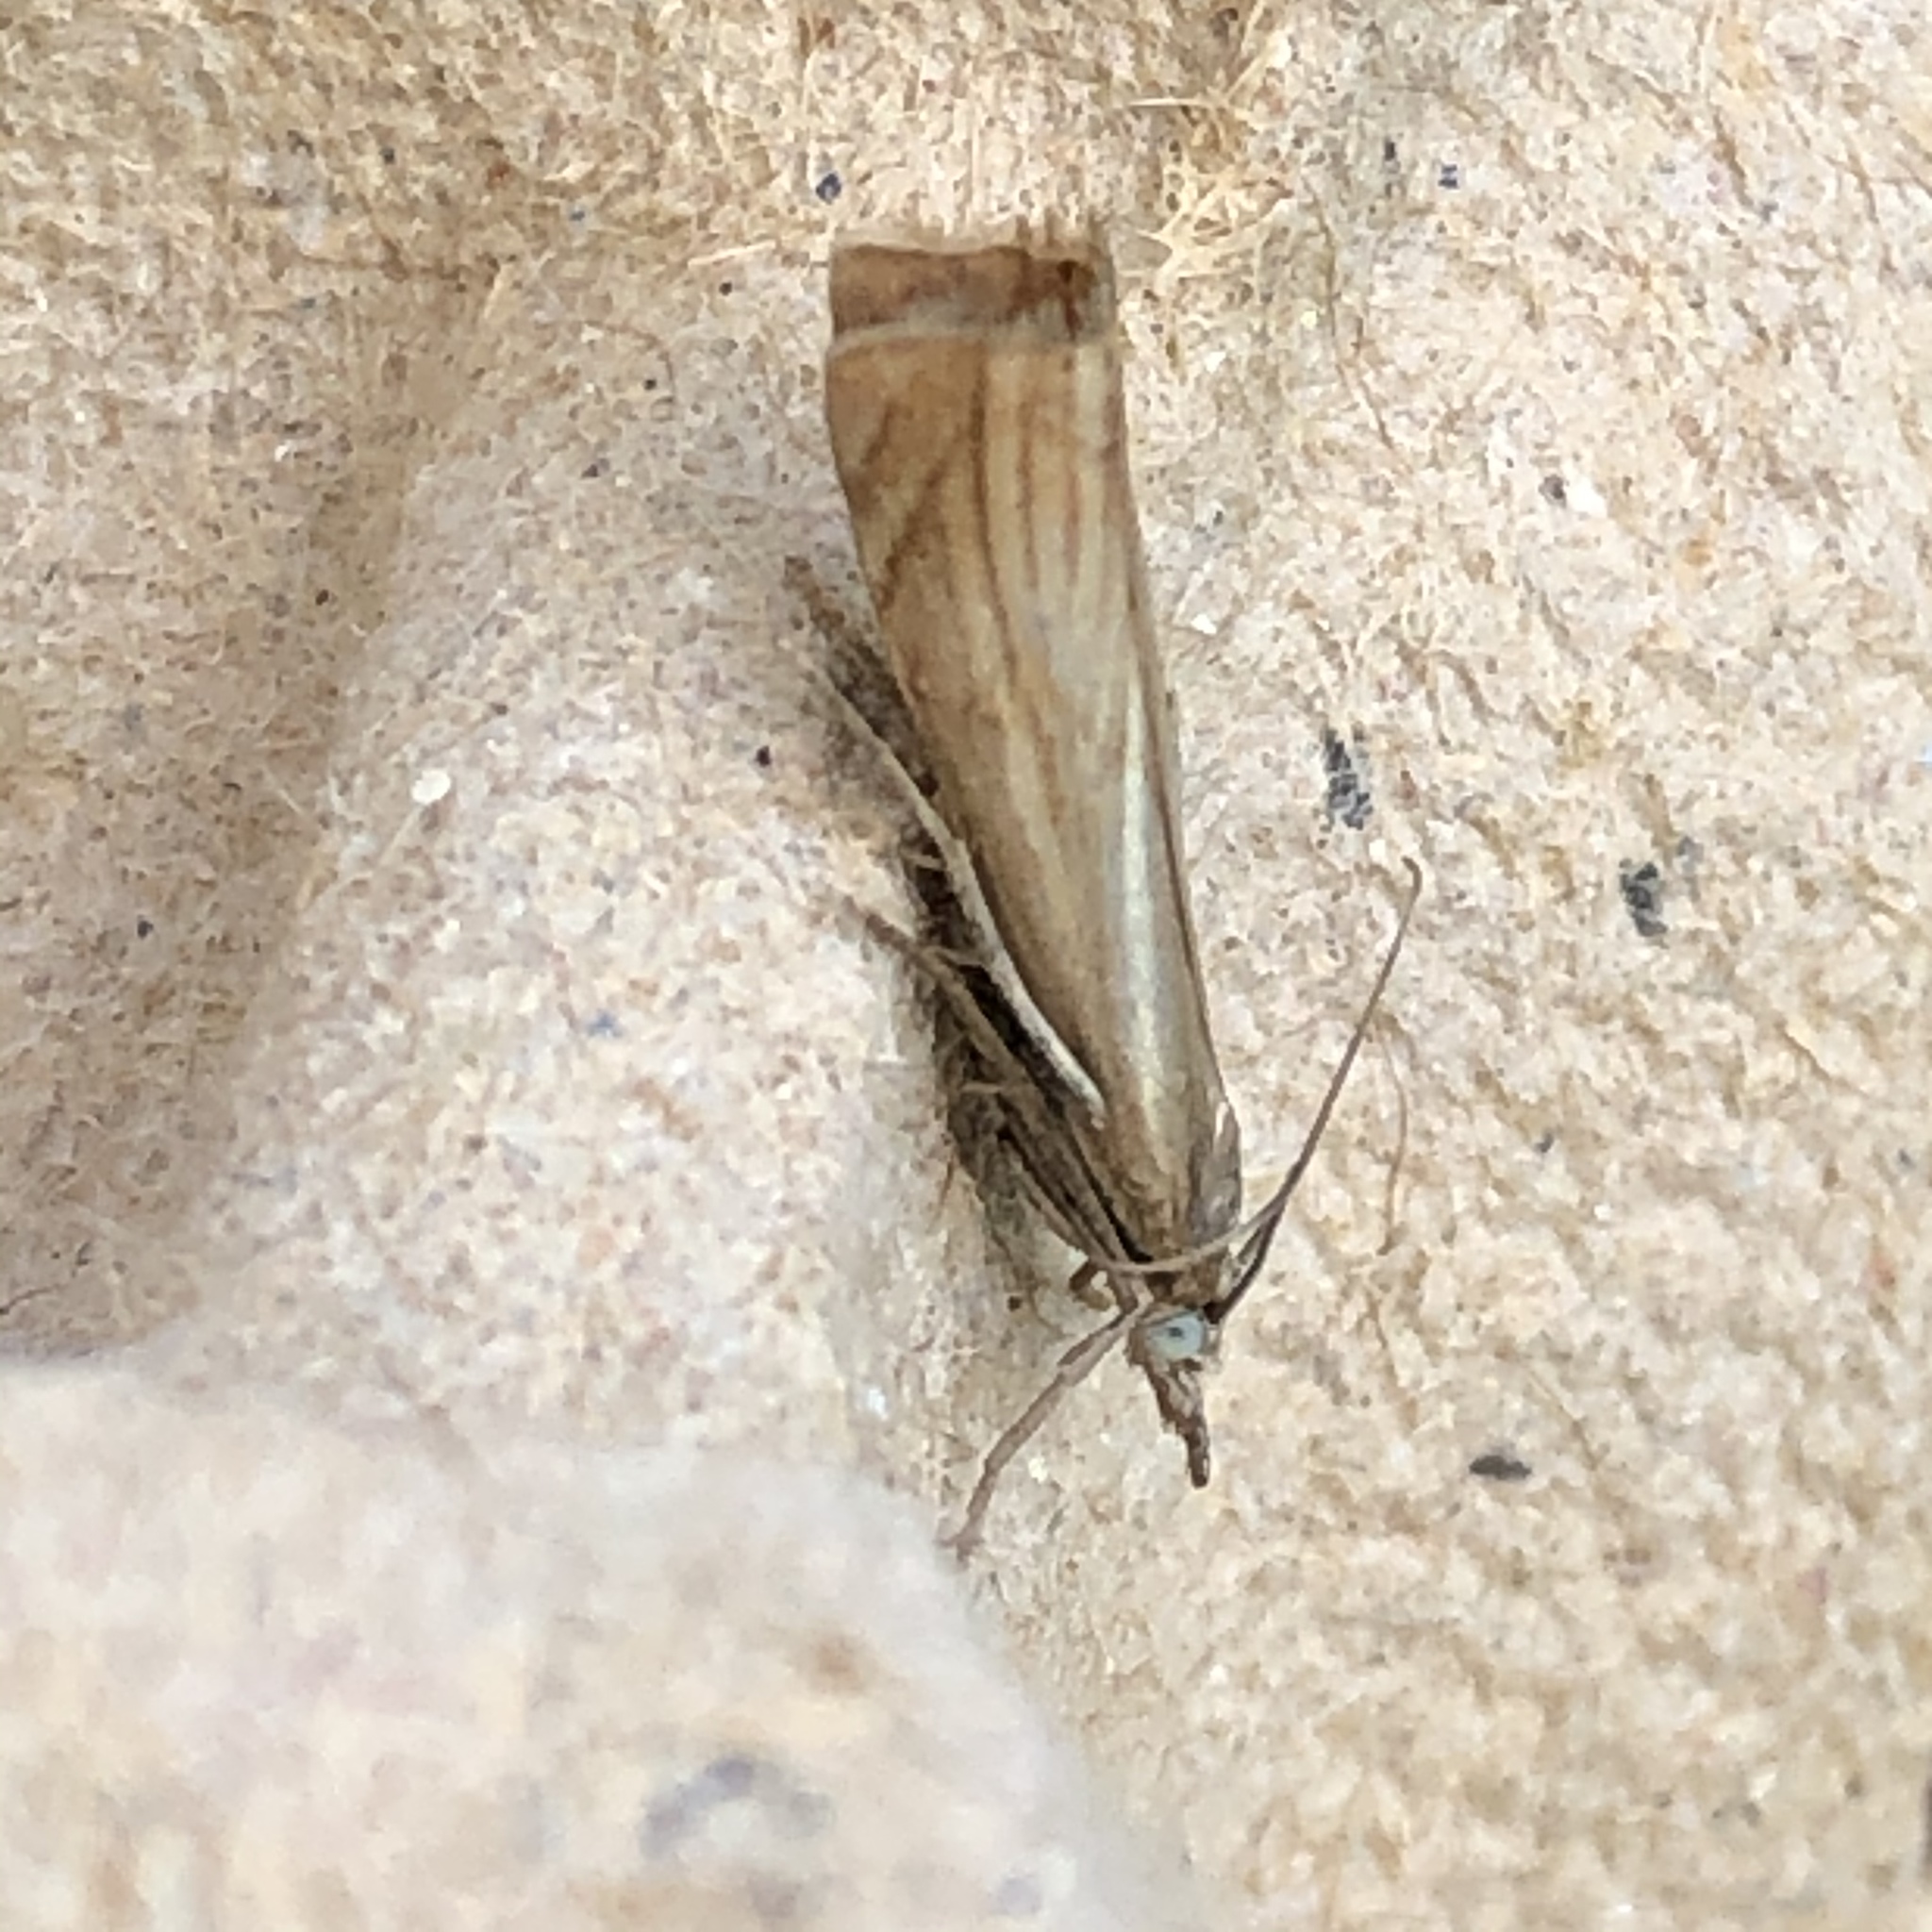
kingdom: Animalia
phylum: Arthropoda
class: Insecta
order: Lepidoptera
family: Crambidae
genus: Chrysoteuchia
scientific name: Chrysoteuchia culmella
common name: Garden grass-veneer
